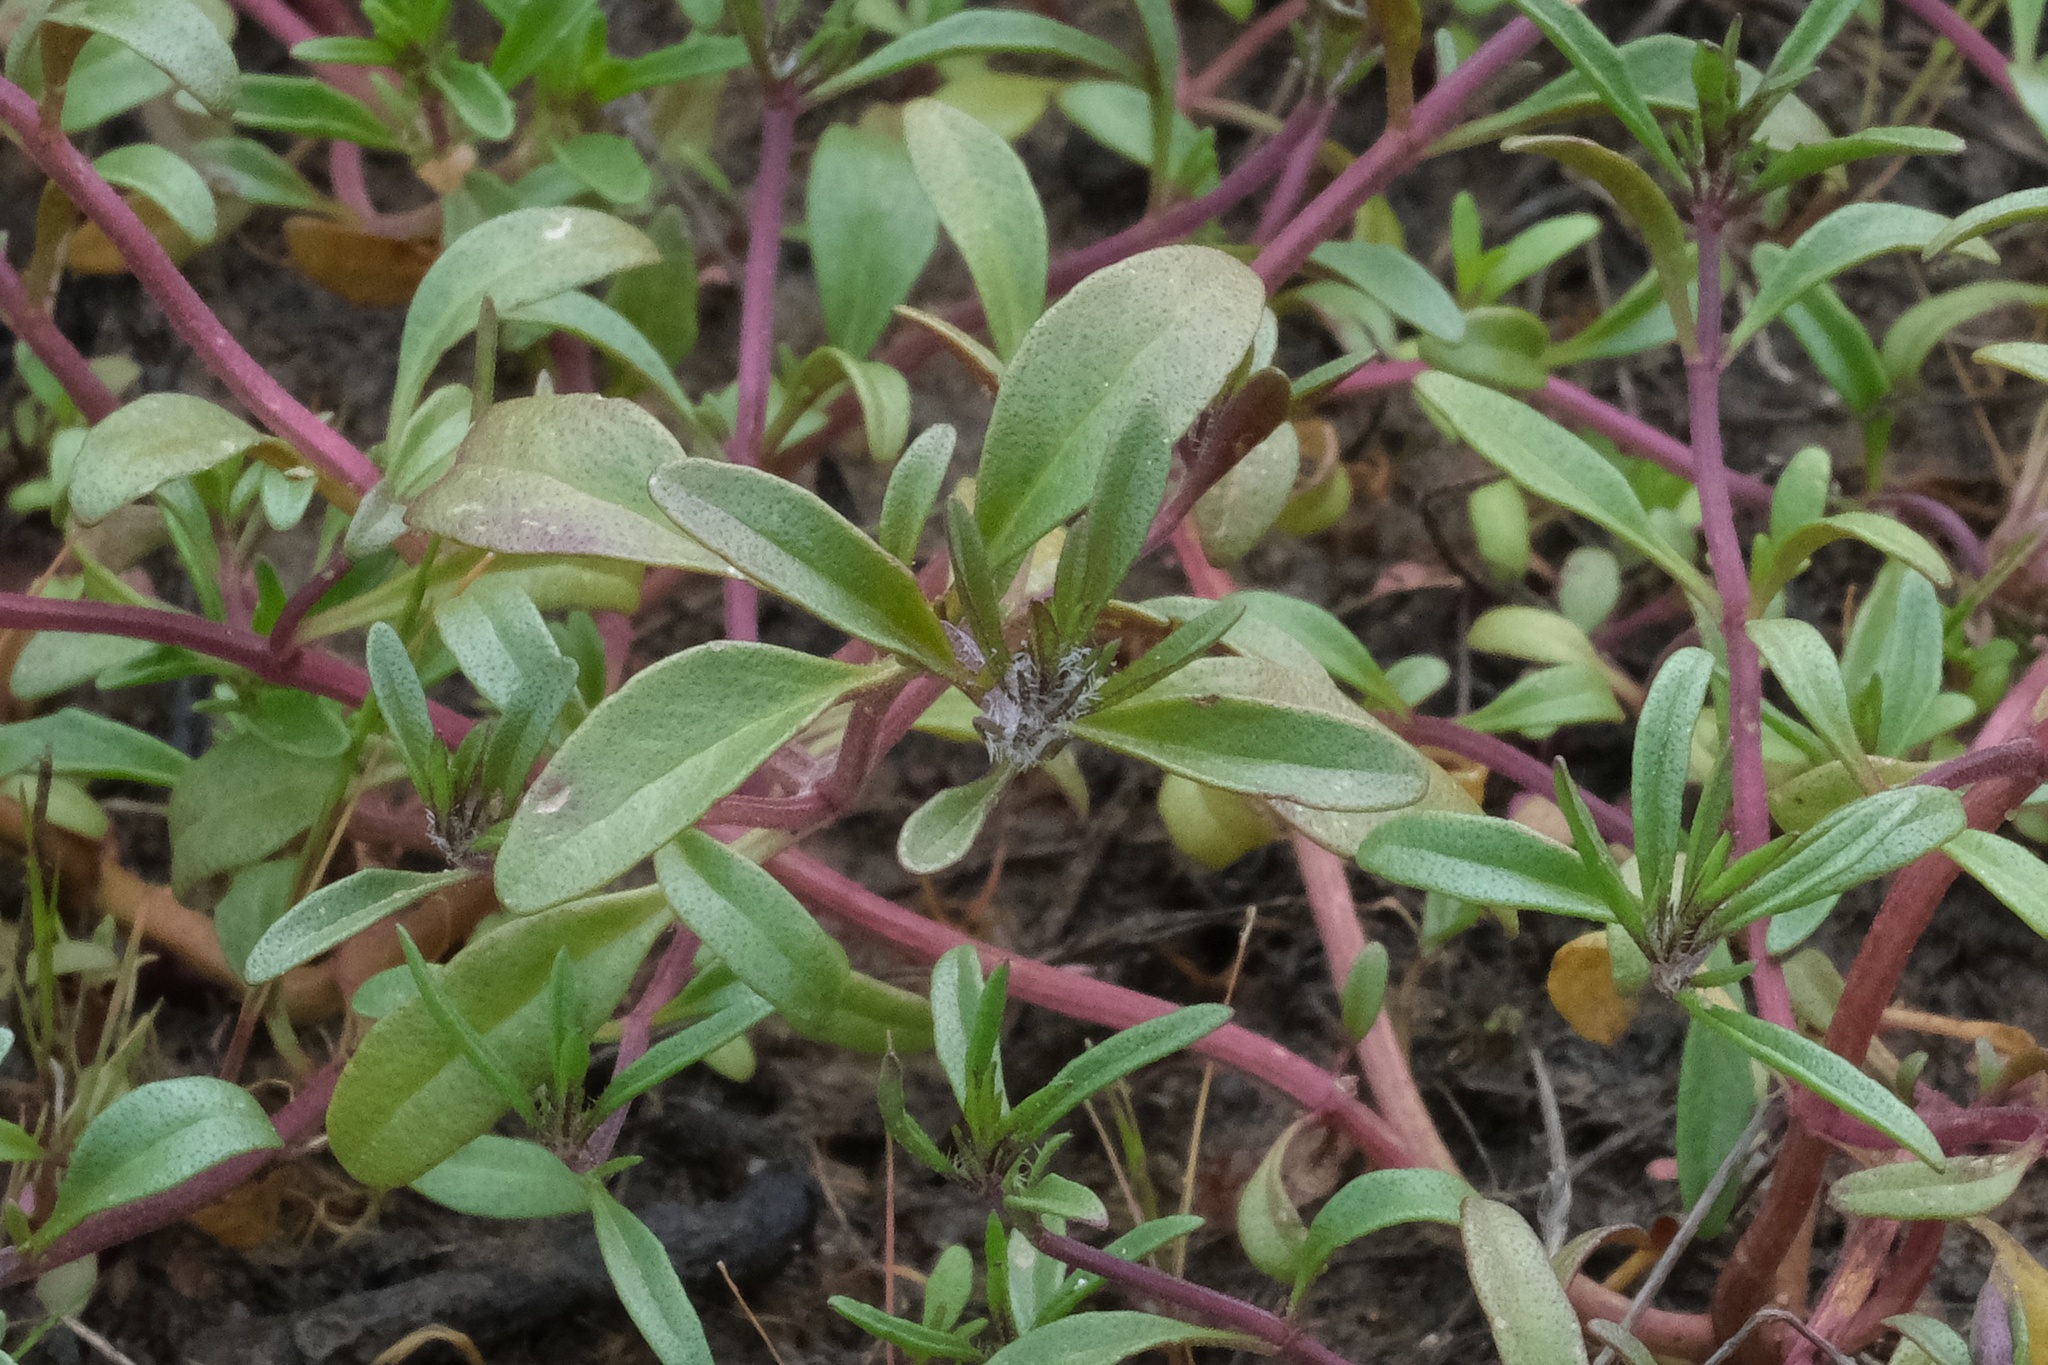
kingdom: Plantae
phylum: Tracheophyta
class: Magnoliopsida
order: Lamiales
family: Lamiaceae
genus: Pogogyne
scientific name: Pogogyne abramsii
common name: San diego mesa-mint
